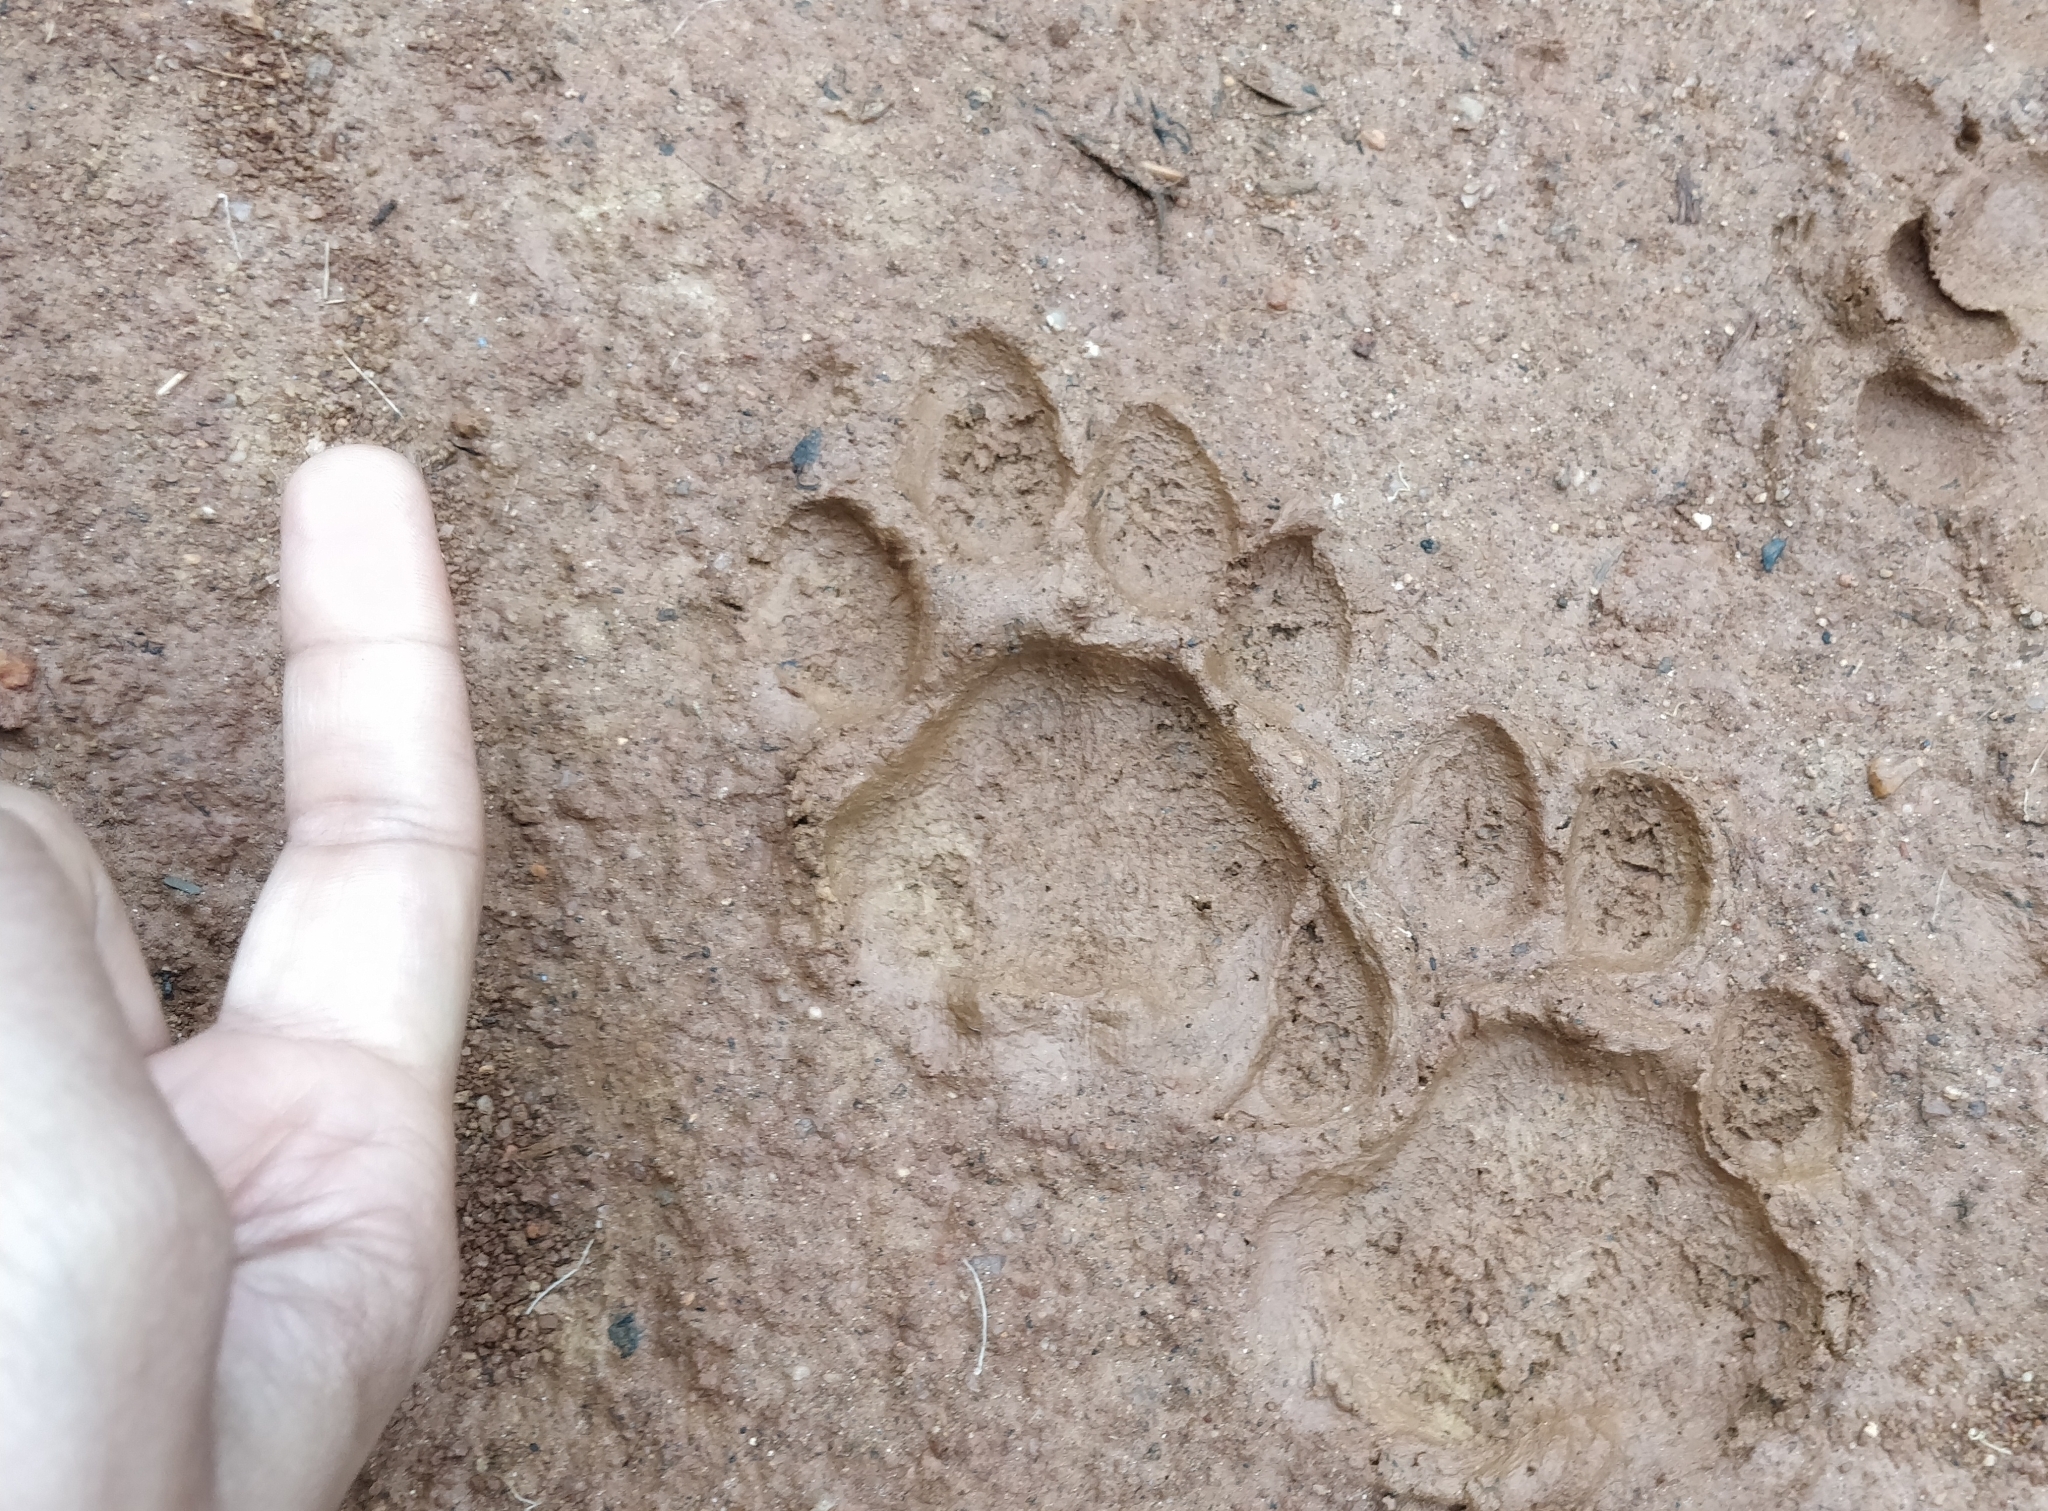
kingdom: Animalia
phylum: Chordata
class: Mammalia
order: Carnivora
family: Felidae
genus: Panthera
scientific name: Panthera pardus
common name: Leopard
